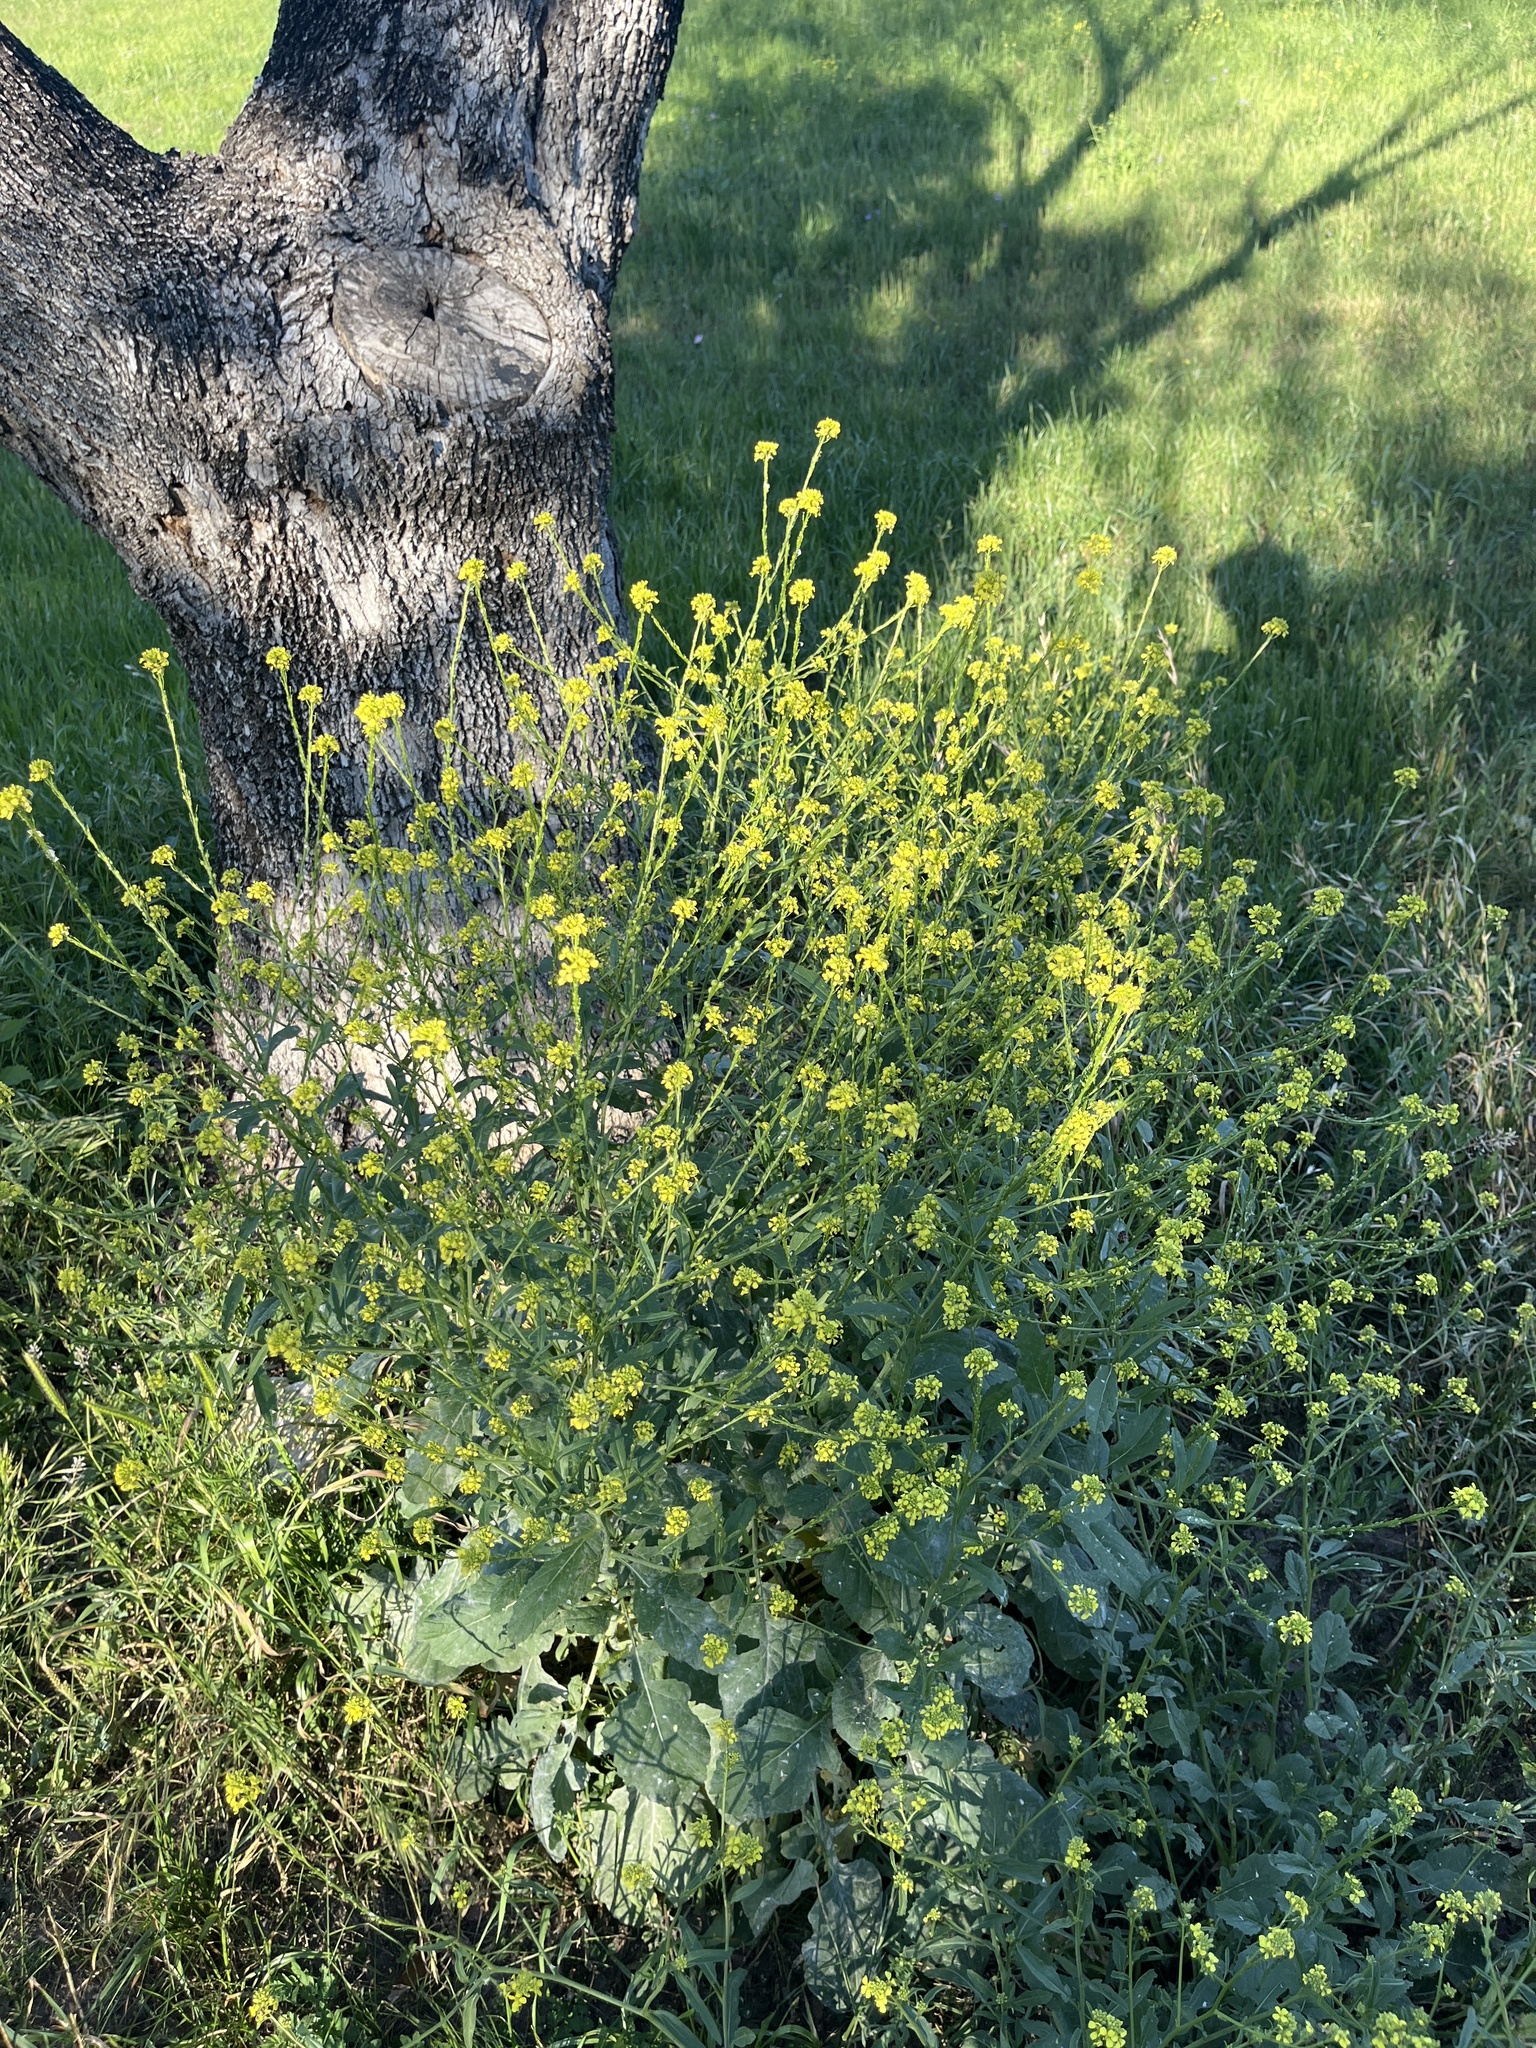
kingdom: Plantae
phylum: Tracheophyta
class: Magnoliopsida
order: Brassicales
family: Brassicaceae
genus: Rapistrum
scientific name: Rapistrum rugosum
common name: Annual bastardcabbage
